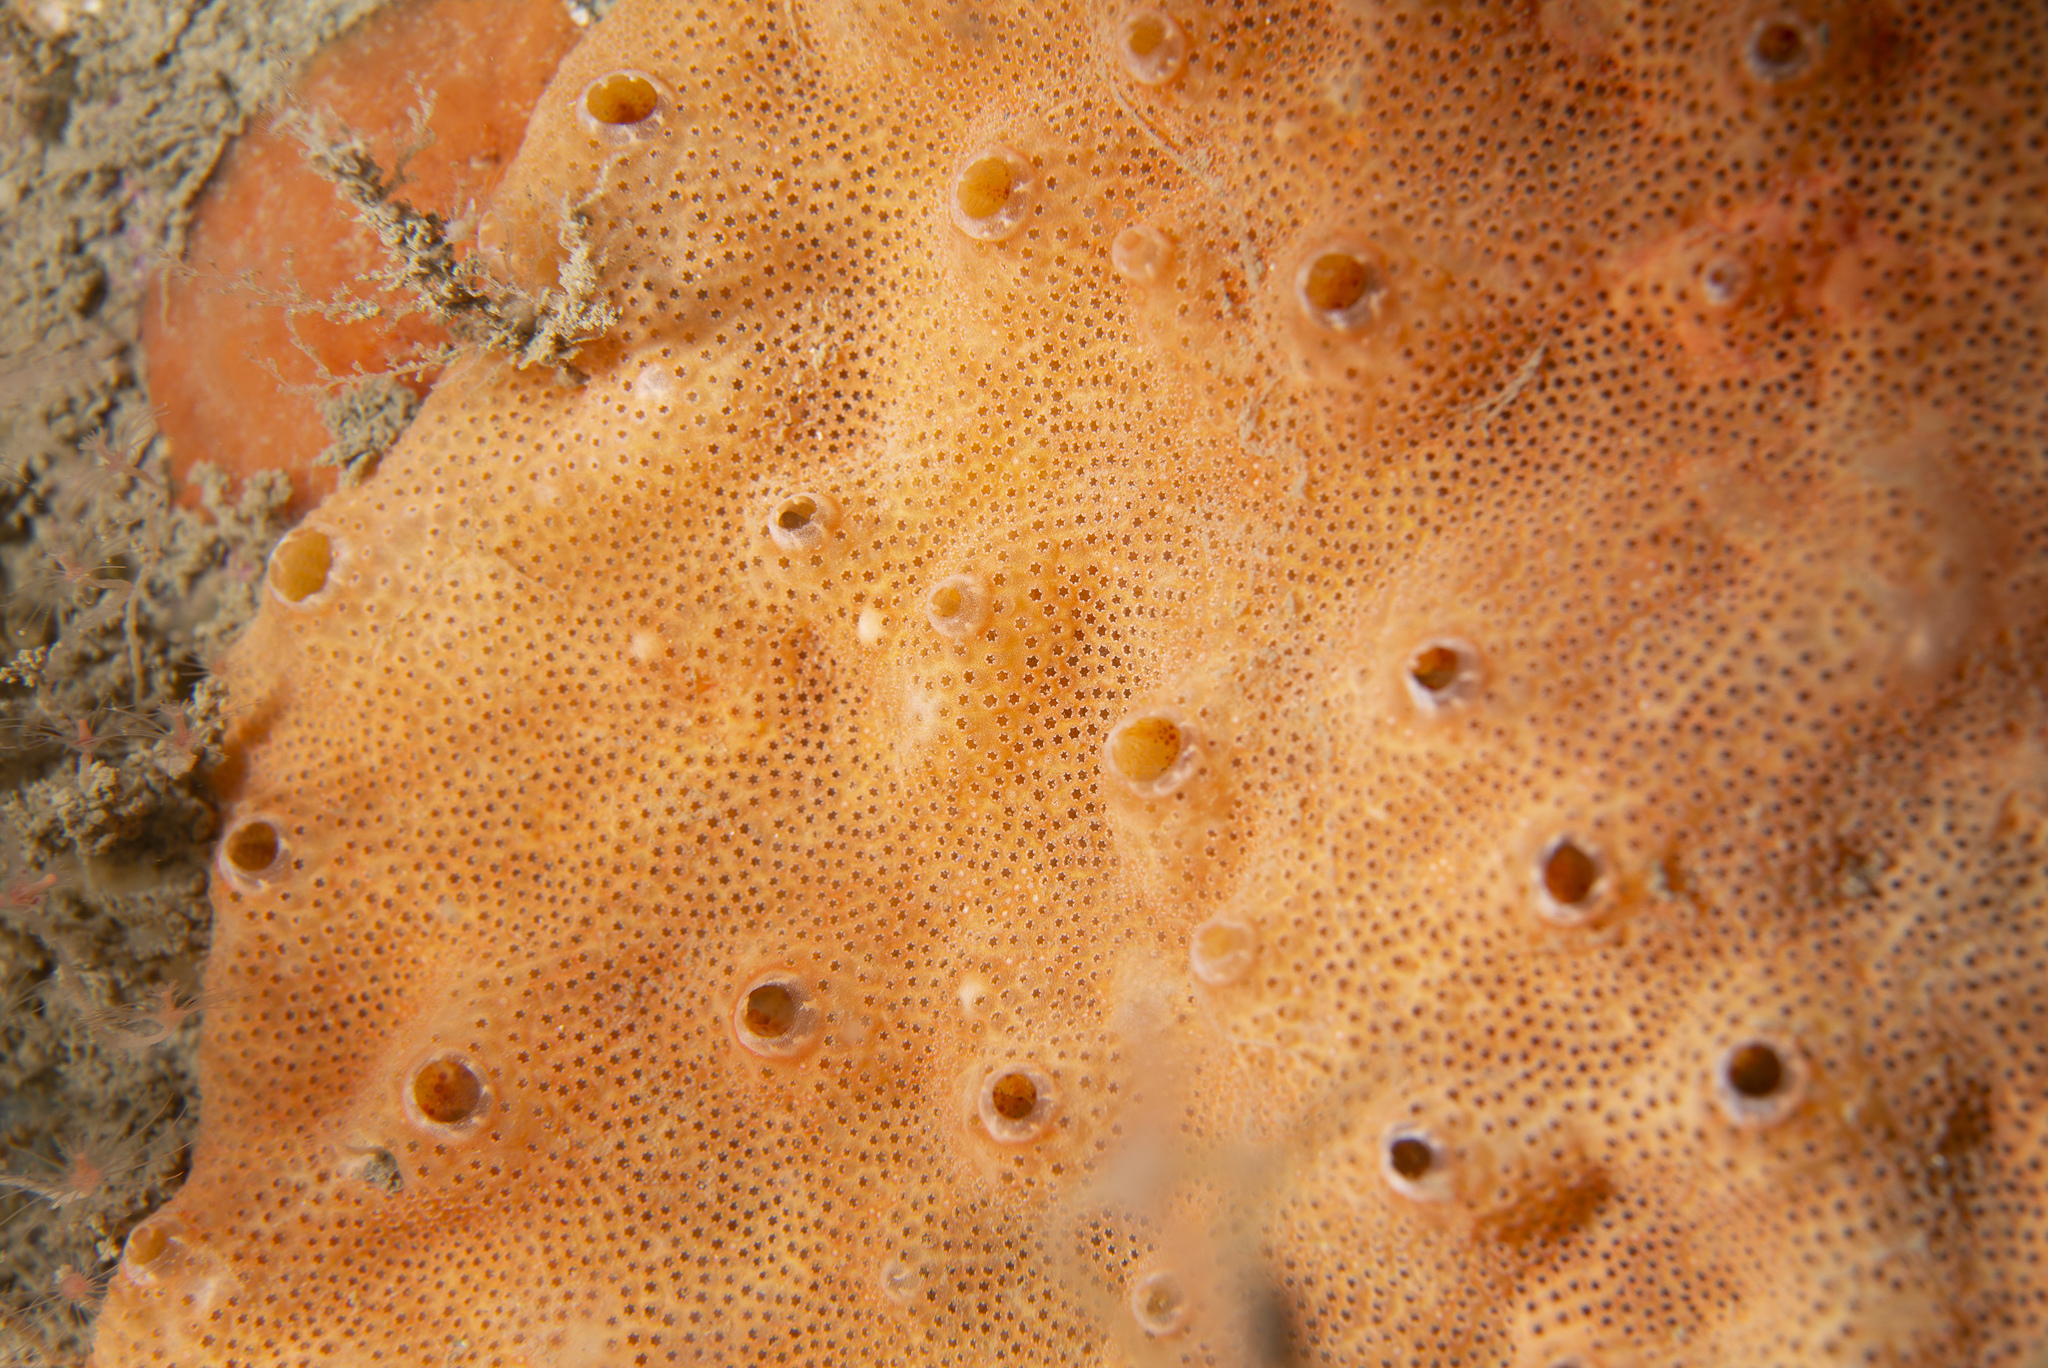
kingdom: Animalia
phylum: Chordata
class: Ascidiacea
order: Aplousobranchia
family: Didemnidae
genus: Polysyncraton
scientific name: Polysyncraton bilobatum
